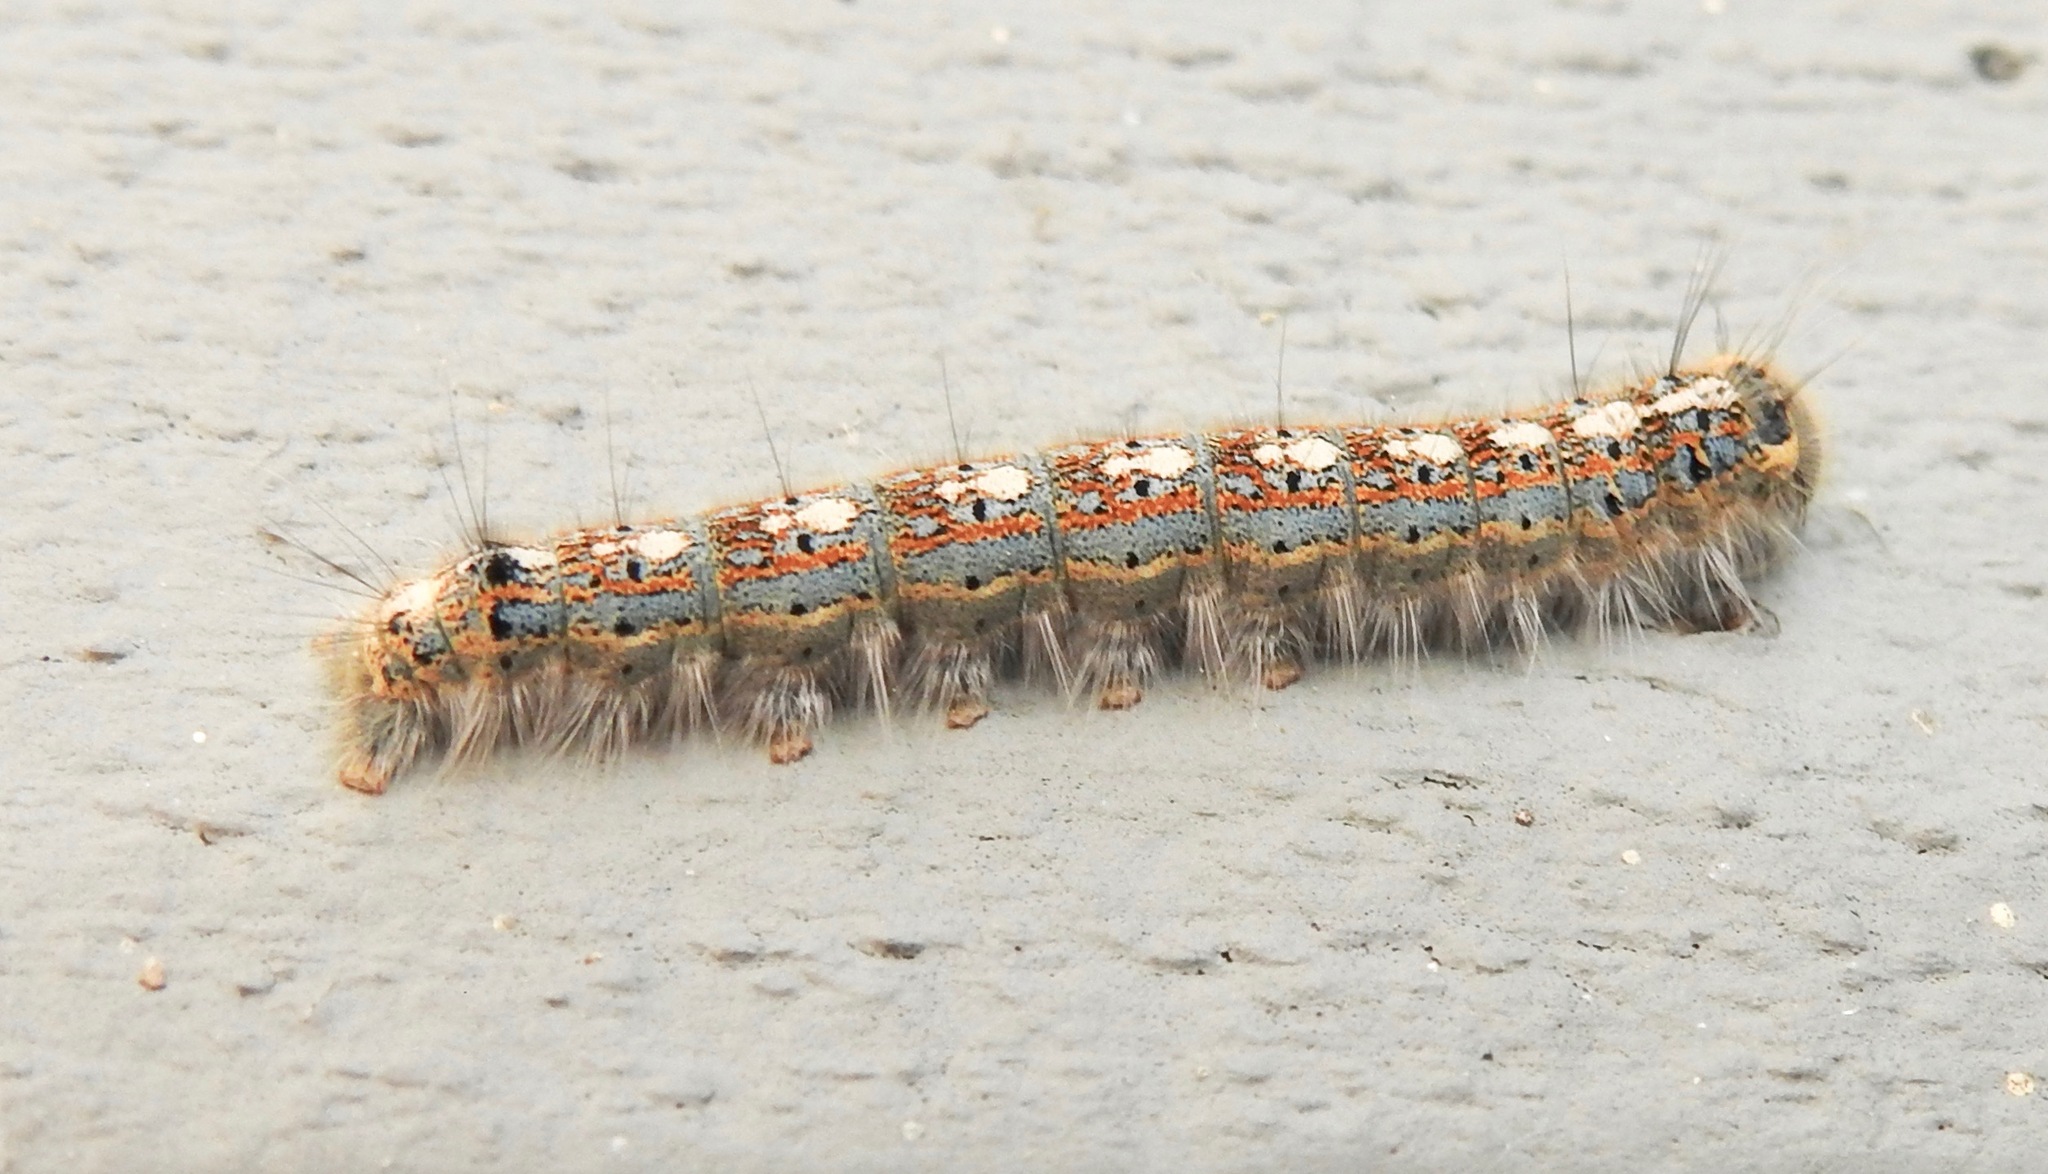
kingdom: Animalia
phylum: Arthropoda
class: Insecta
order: Lepidoptera
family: Lasiocampidae
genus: Malacosoma
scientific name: Malacosoma disstria
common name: Forest tent caterpillar
